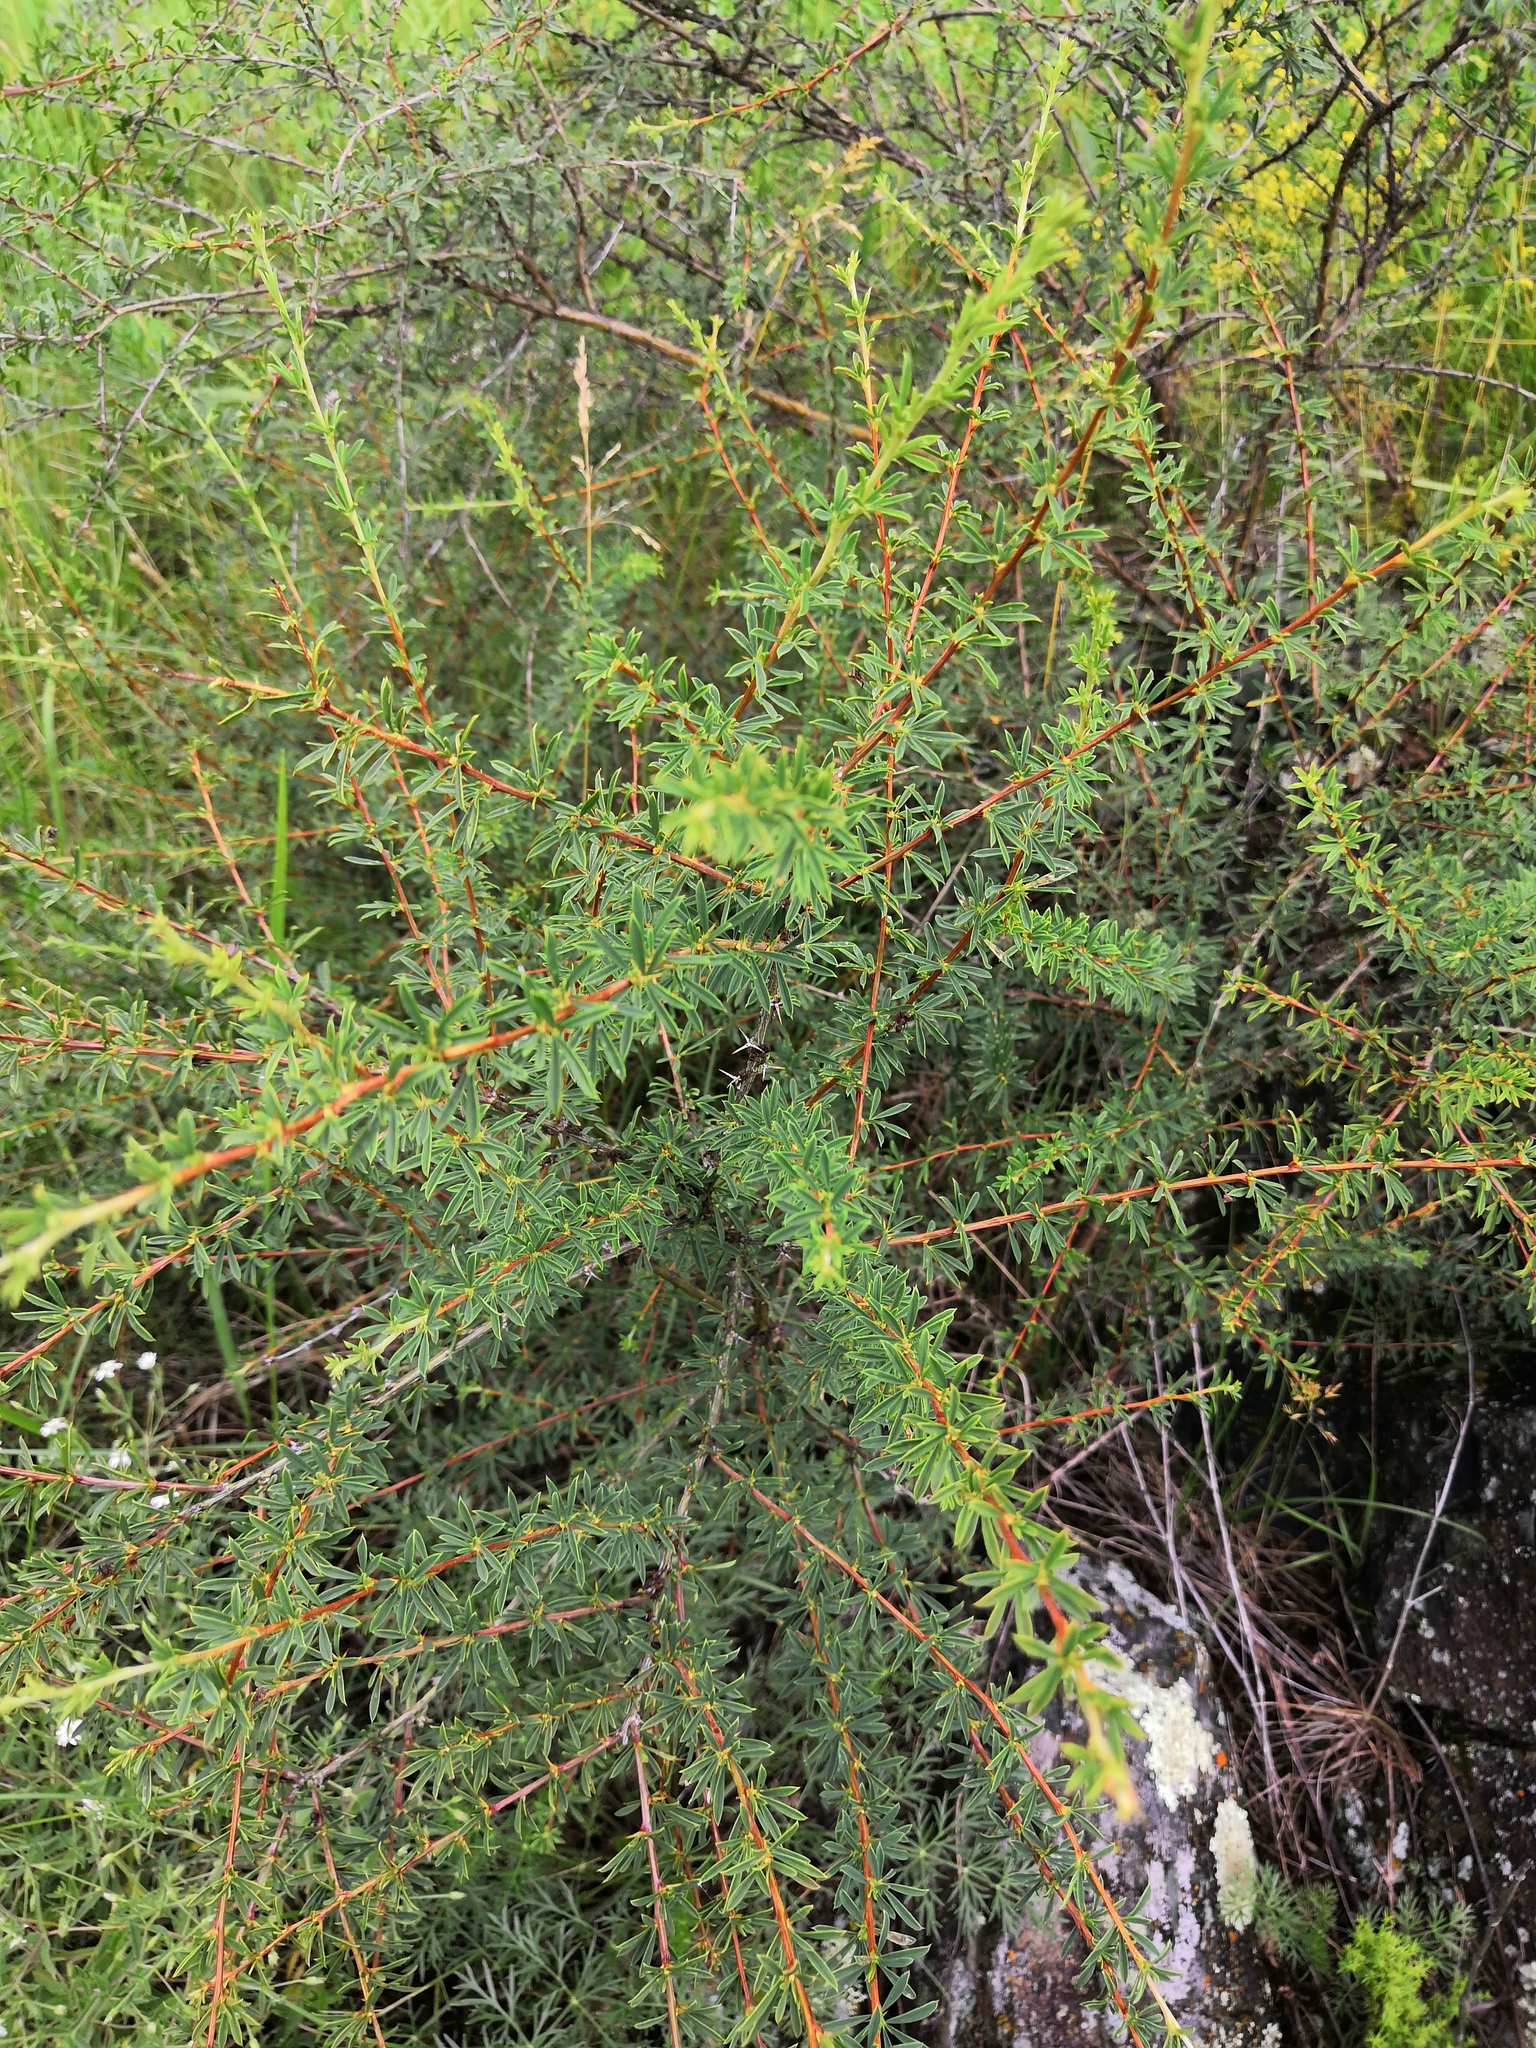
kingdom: Plantae
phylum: Tracheophyta
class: Magnoliopsida
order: Fabales
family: Fabaceae
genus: Caragana
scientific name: Caragana pygmaea
